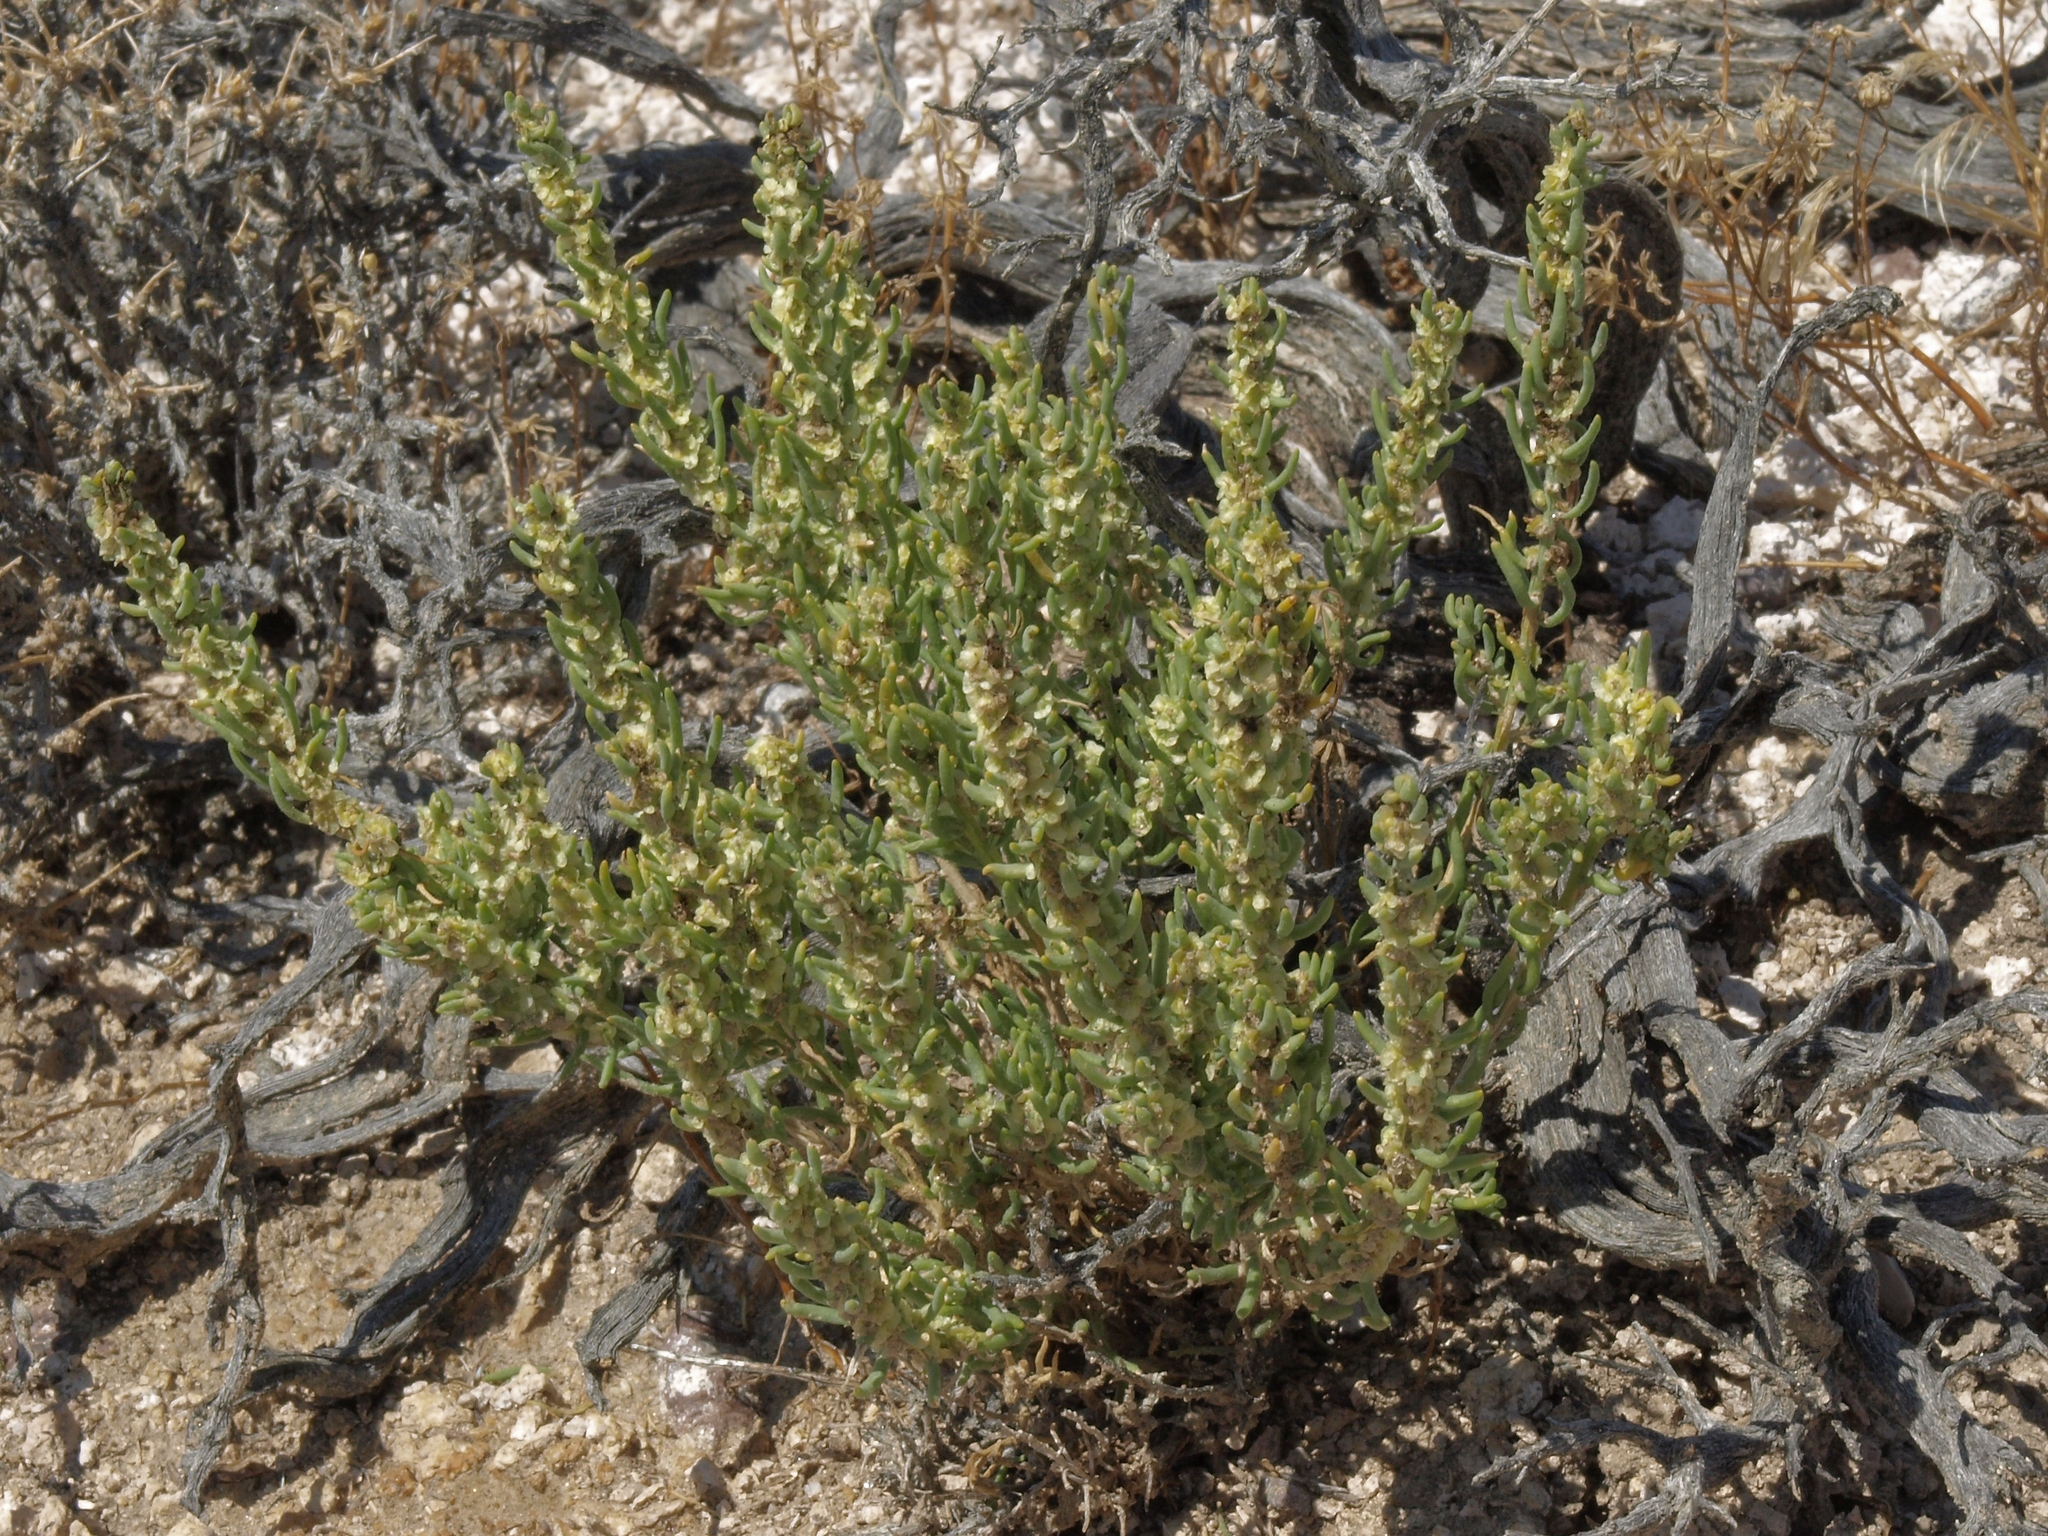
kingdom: Plantae
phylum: Tracheophyta
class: Magnoliopsida
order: Caryophyllales
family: Amaranthaceae
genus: Neokochia
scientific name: Neokochia americana
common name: Perennial summer-cypress
